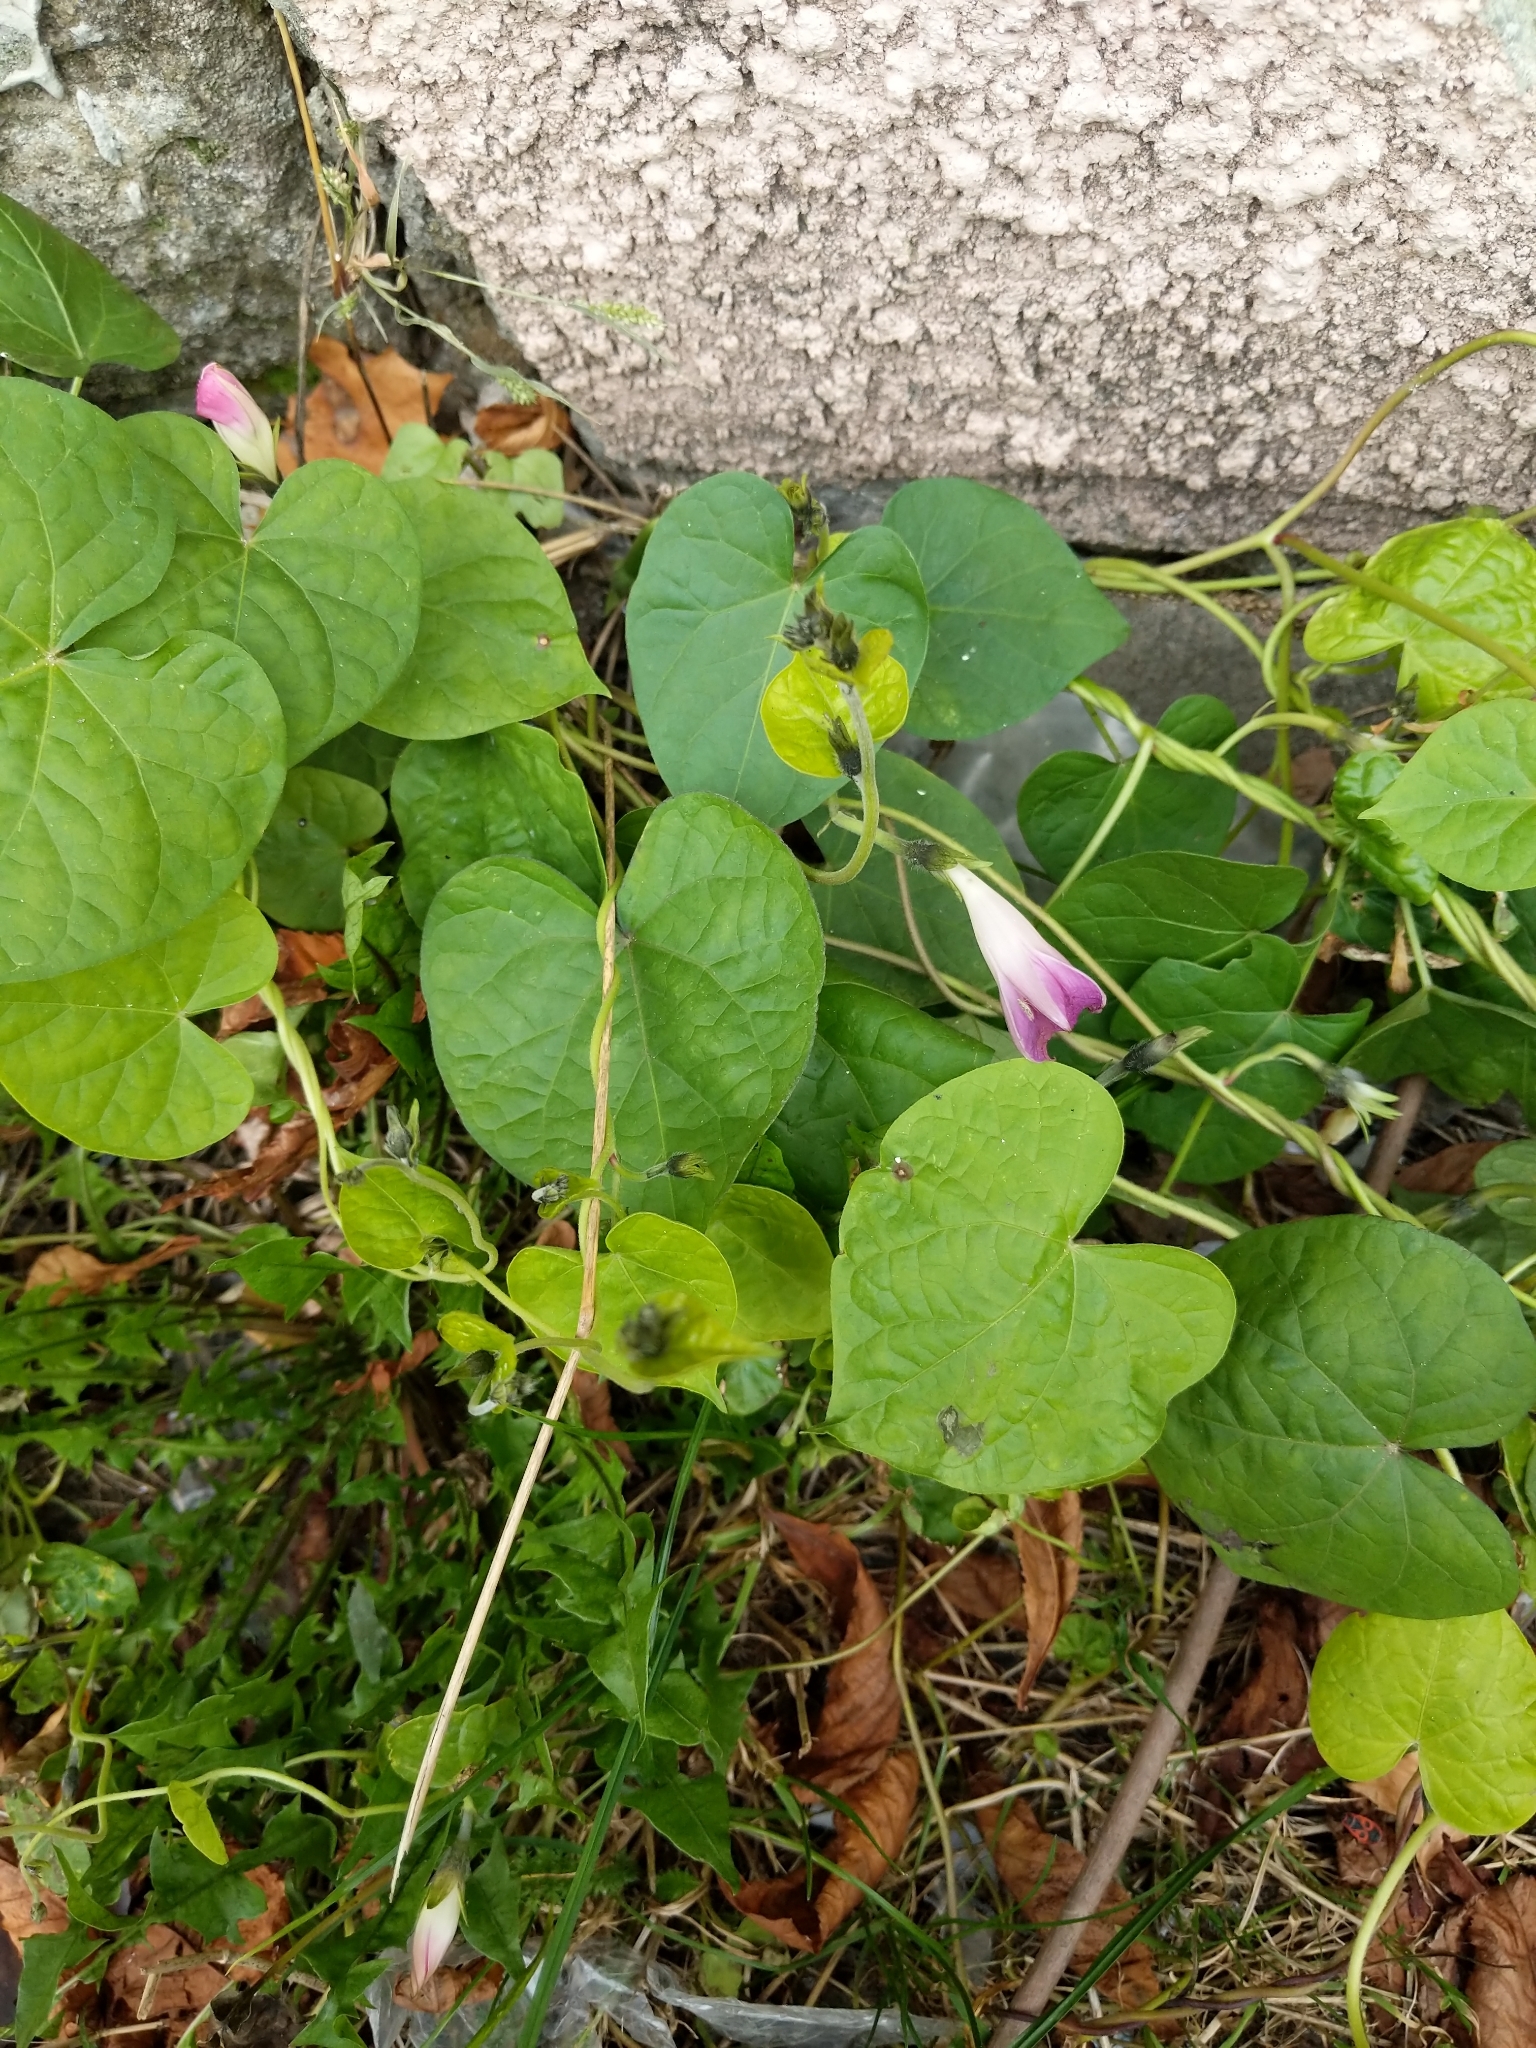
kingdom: Plantae
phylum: Tracheophyta
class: Magnoliopsida
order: Solanales
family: Convolvulaceae
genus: Ipomoea
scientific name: Ipomoea purpurea
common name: Common morning-glory
